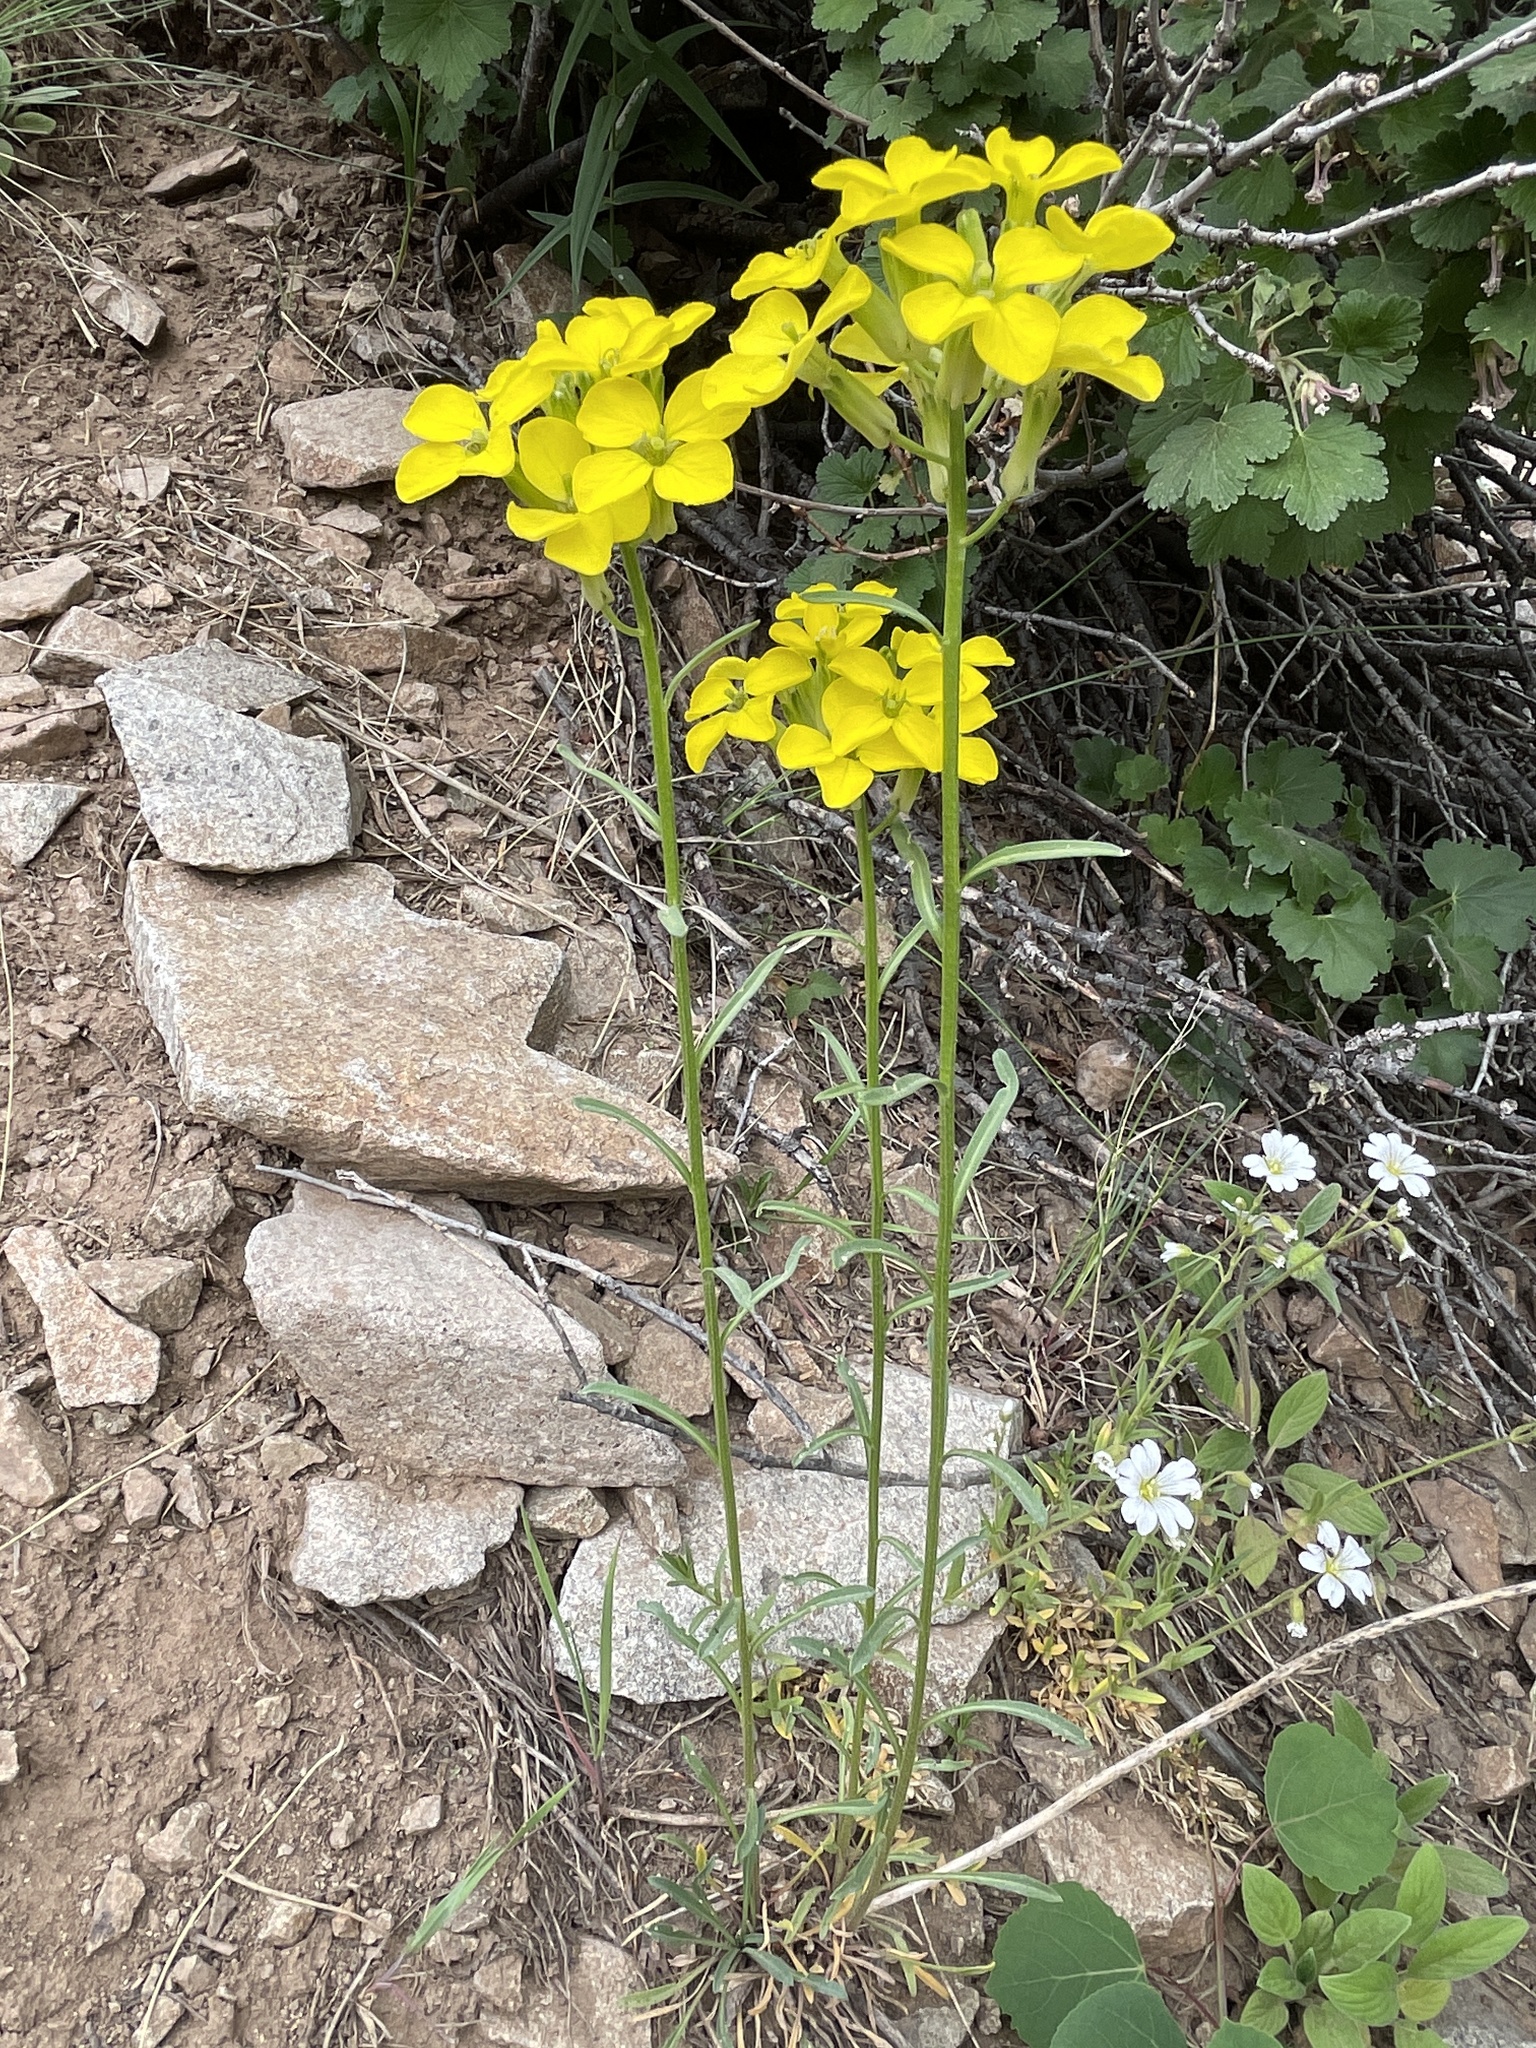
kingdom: Plantae
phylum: Tracheophyta
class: Magnoliopsida
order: Brassicales
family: Brassicaceae
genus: Erysimum
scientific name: Erysimum capitatum
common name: Western wallflower
